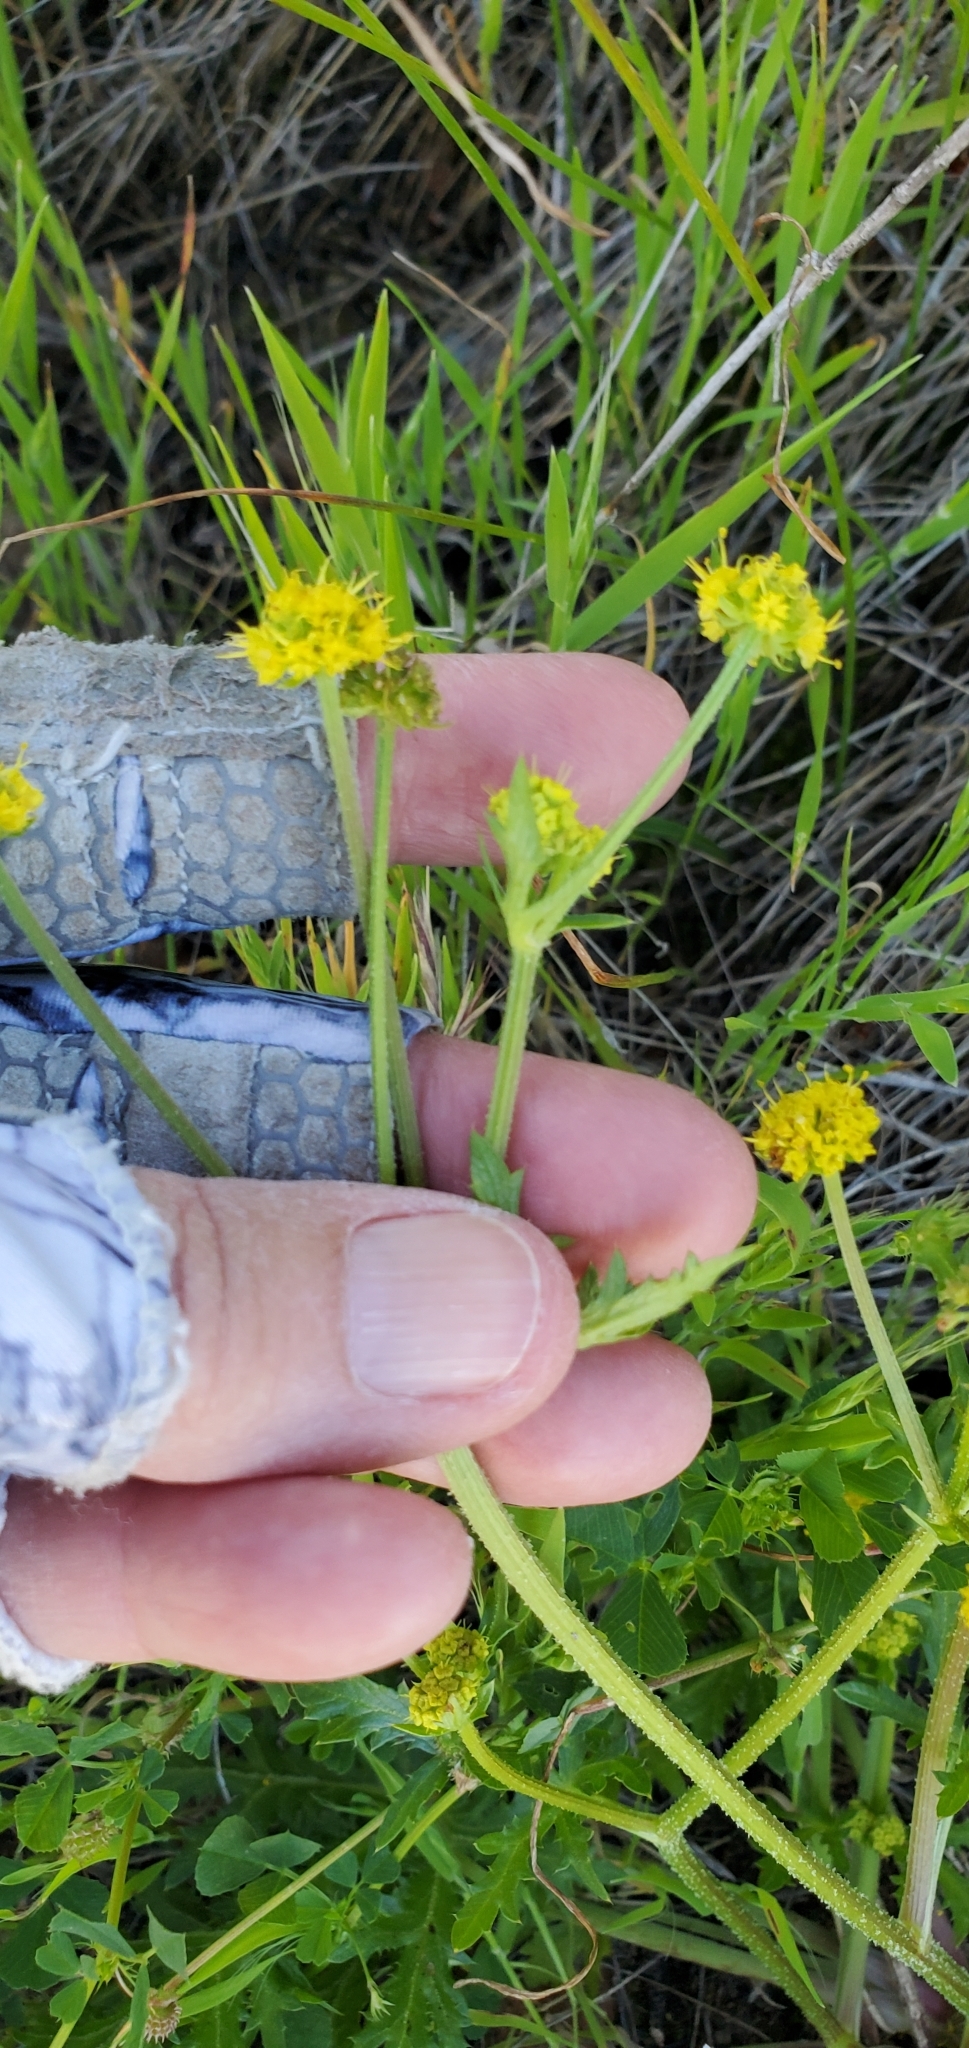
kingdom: Plantae
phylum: Tracheophyta
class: Magnoliopsida
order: Apiales
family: Apiaceae
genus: Sanicula
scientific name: Sanicula arguta
